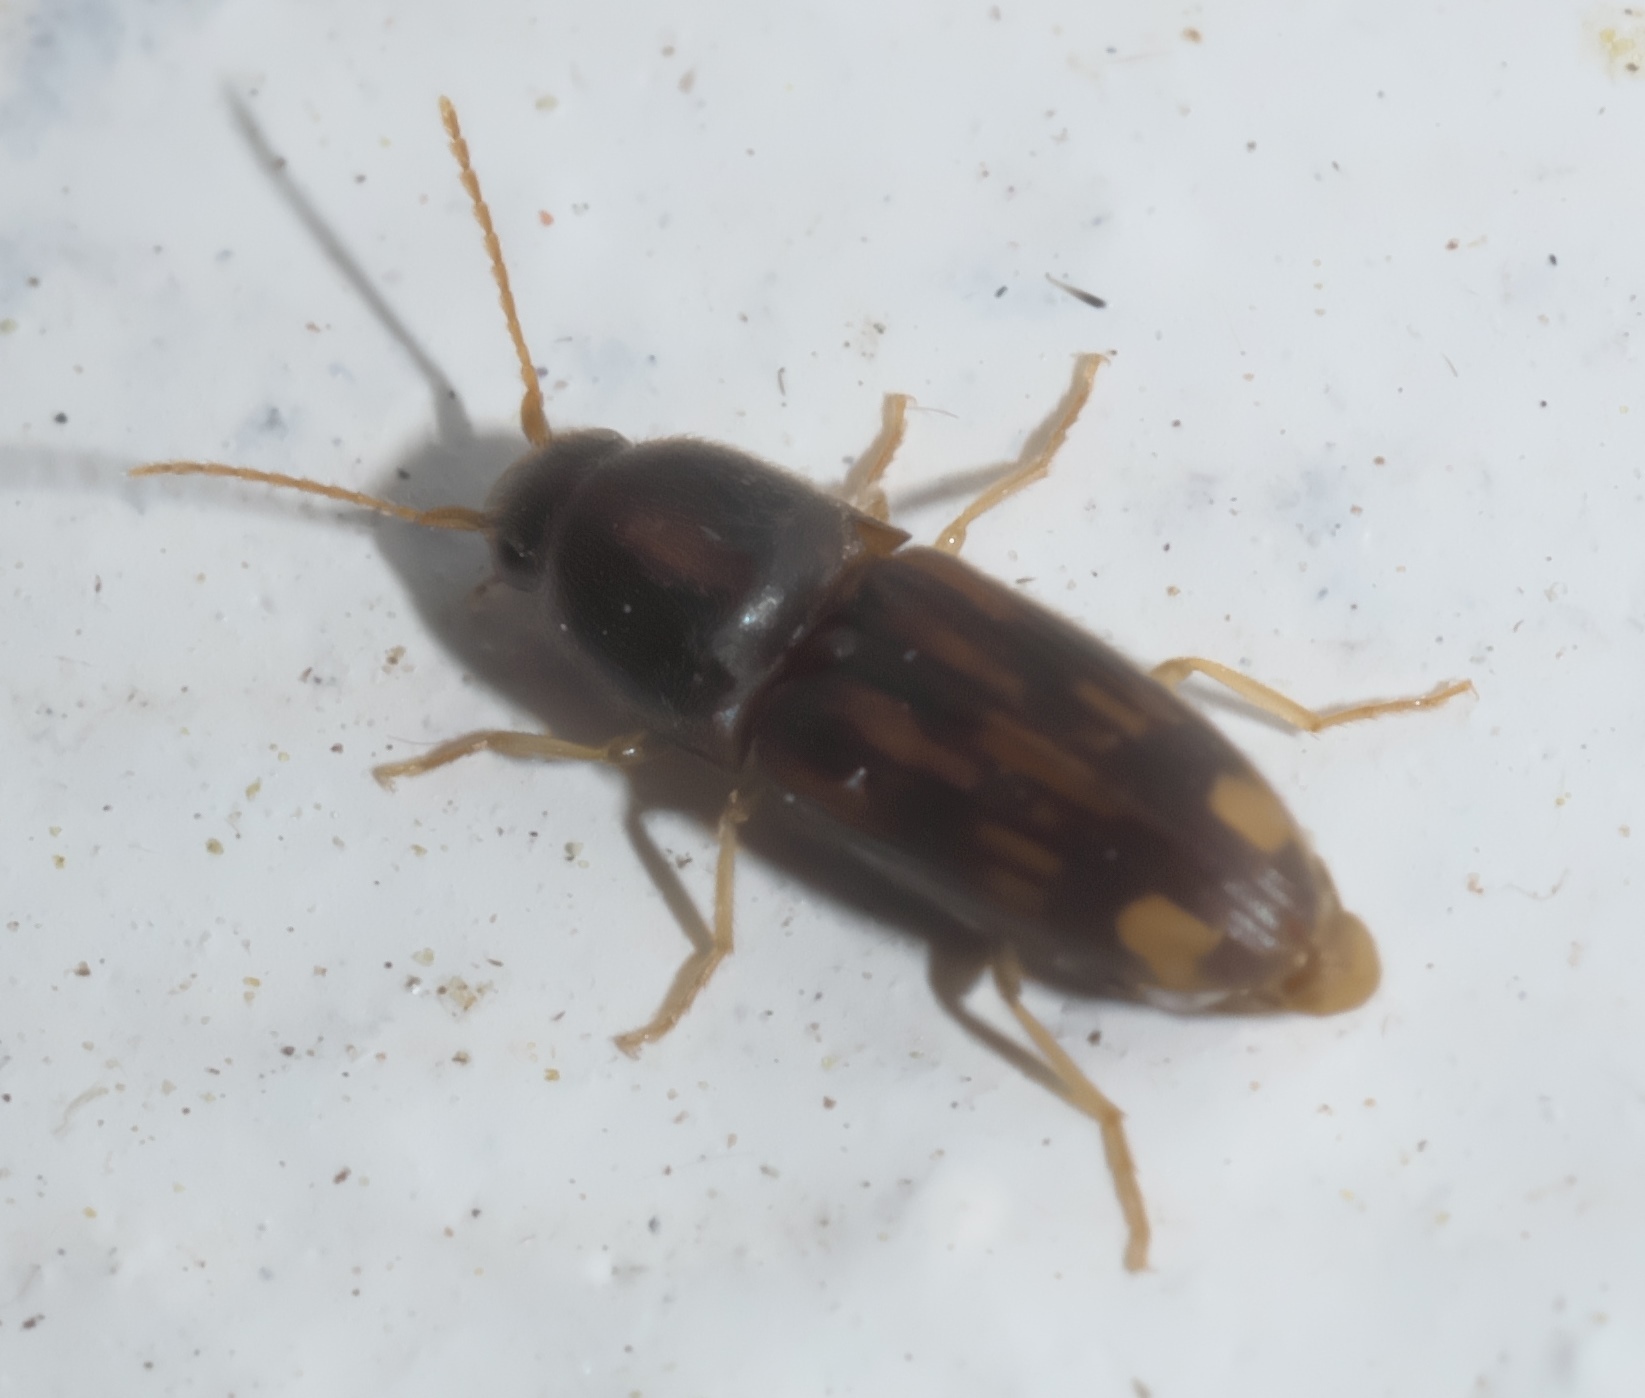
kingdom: Animalia
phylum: Arthropoda
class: Insecta
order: Coleoptera
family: Elateridae
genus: Monocrepidius
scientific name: Monocrepidius bellus
